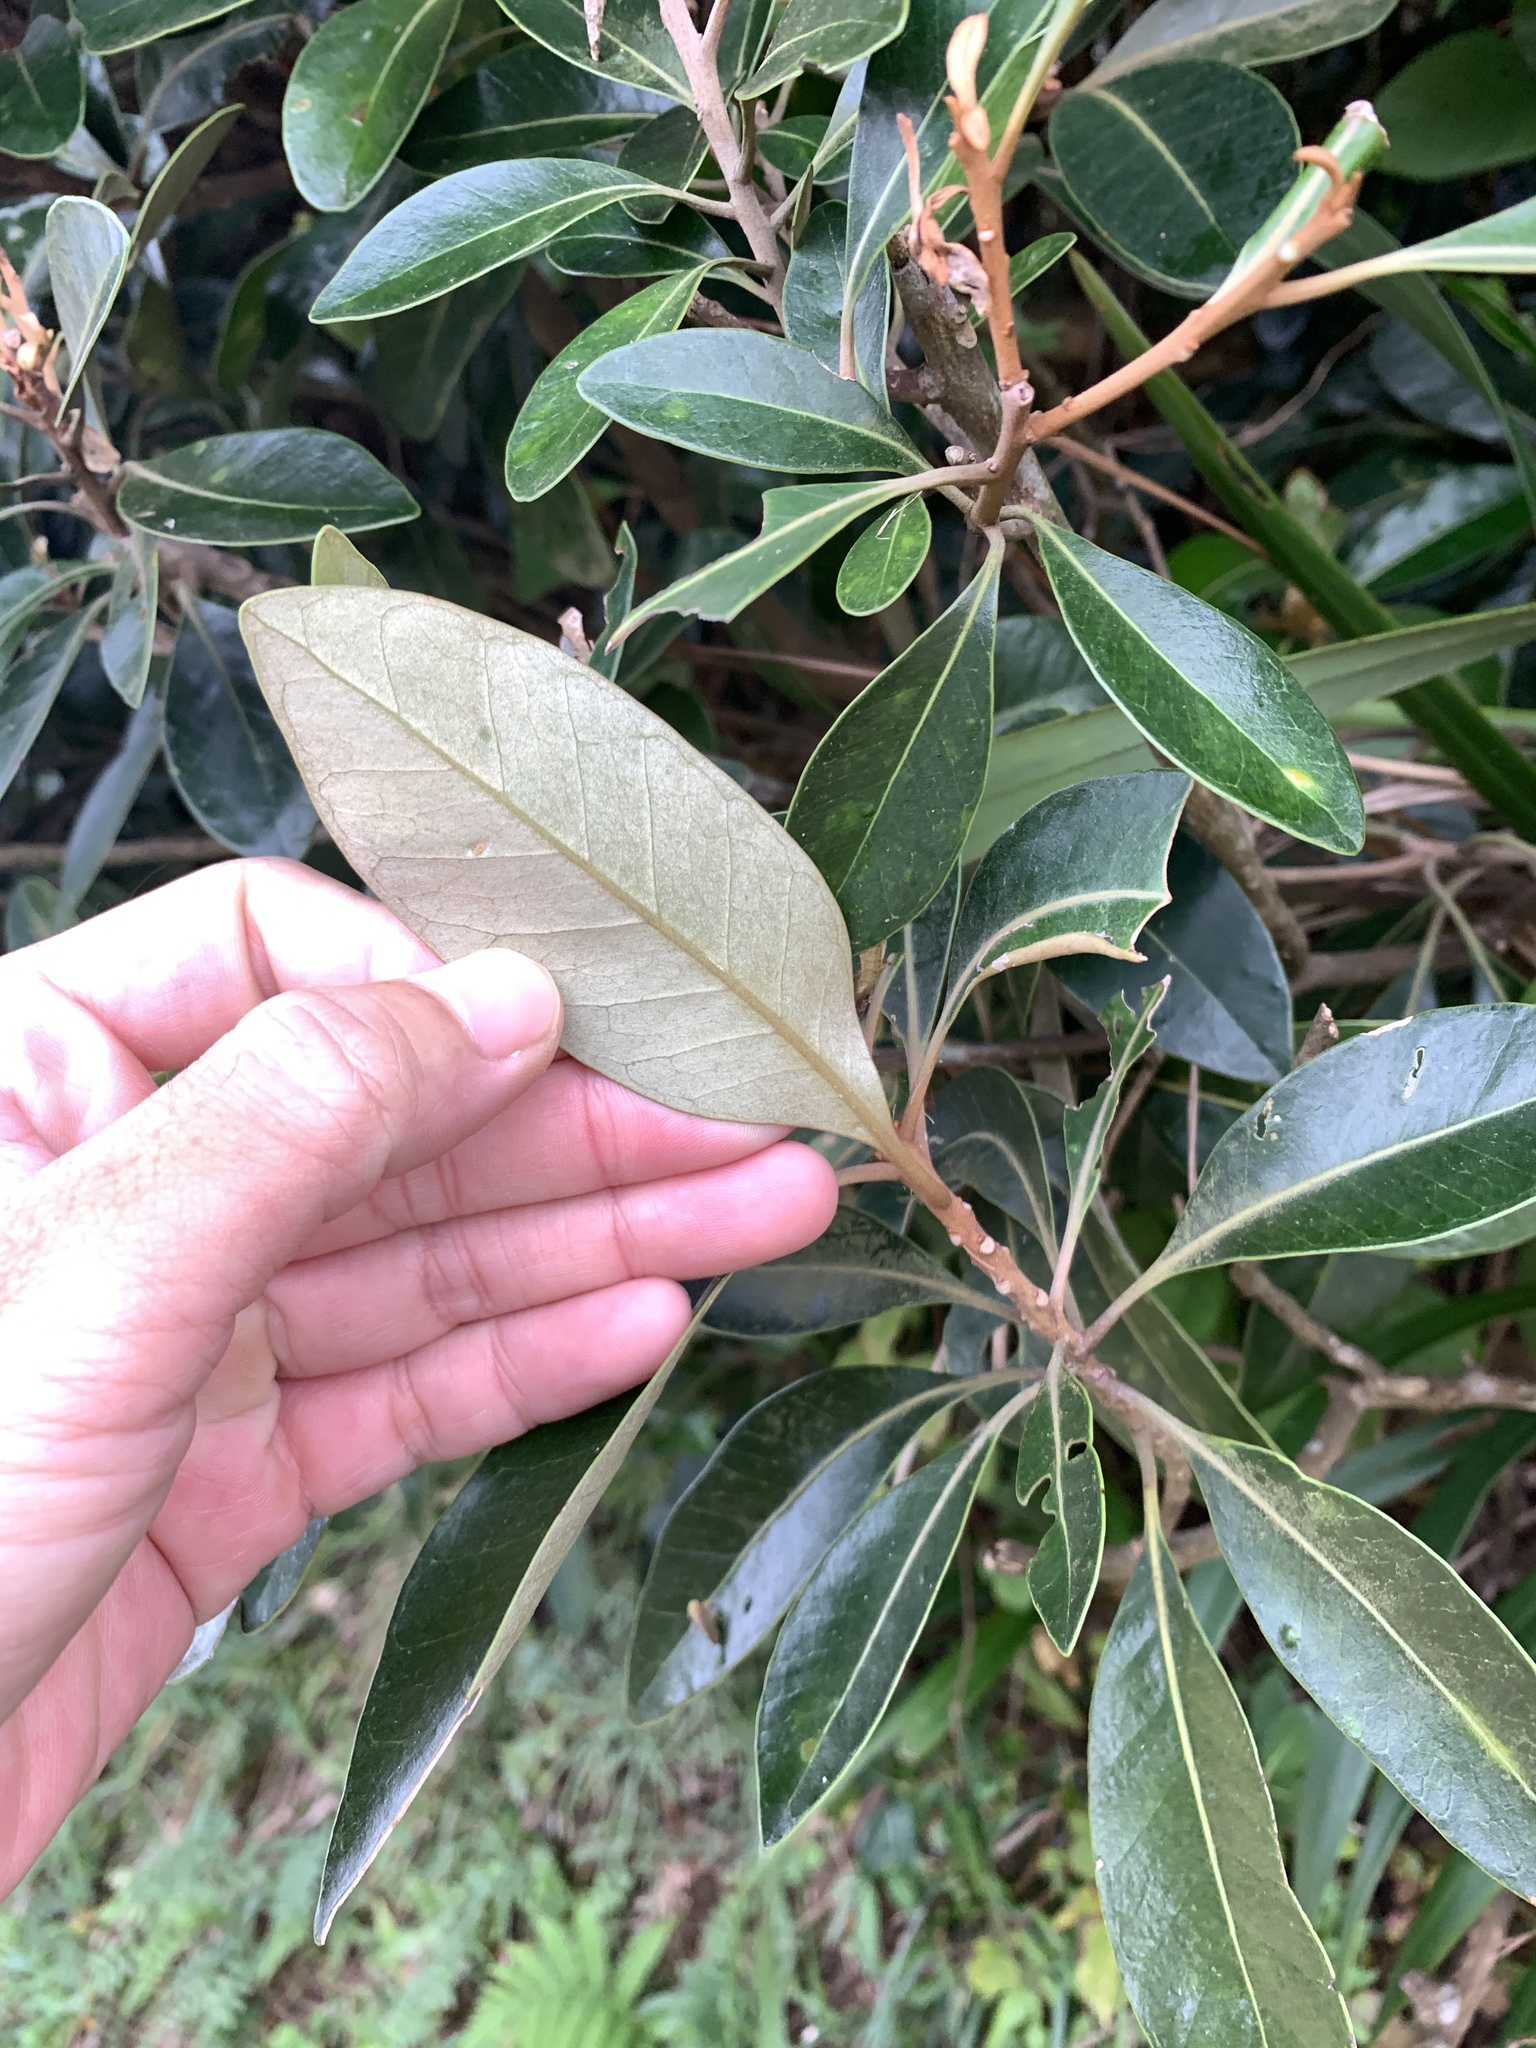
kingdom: Plantae
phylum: Tracheophyta
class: Magnoliopsida
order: Ericales
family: Sapotaceae
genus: Planchonella
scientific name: Planchonella obovata
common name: Black-ash
